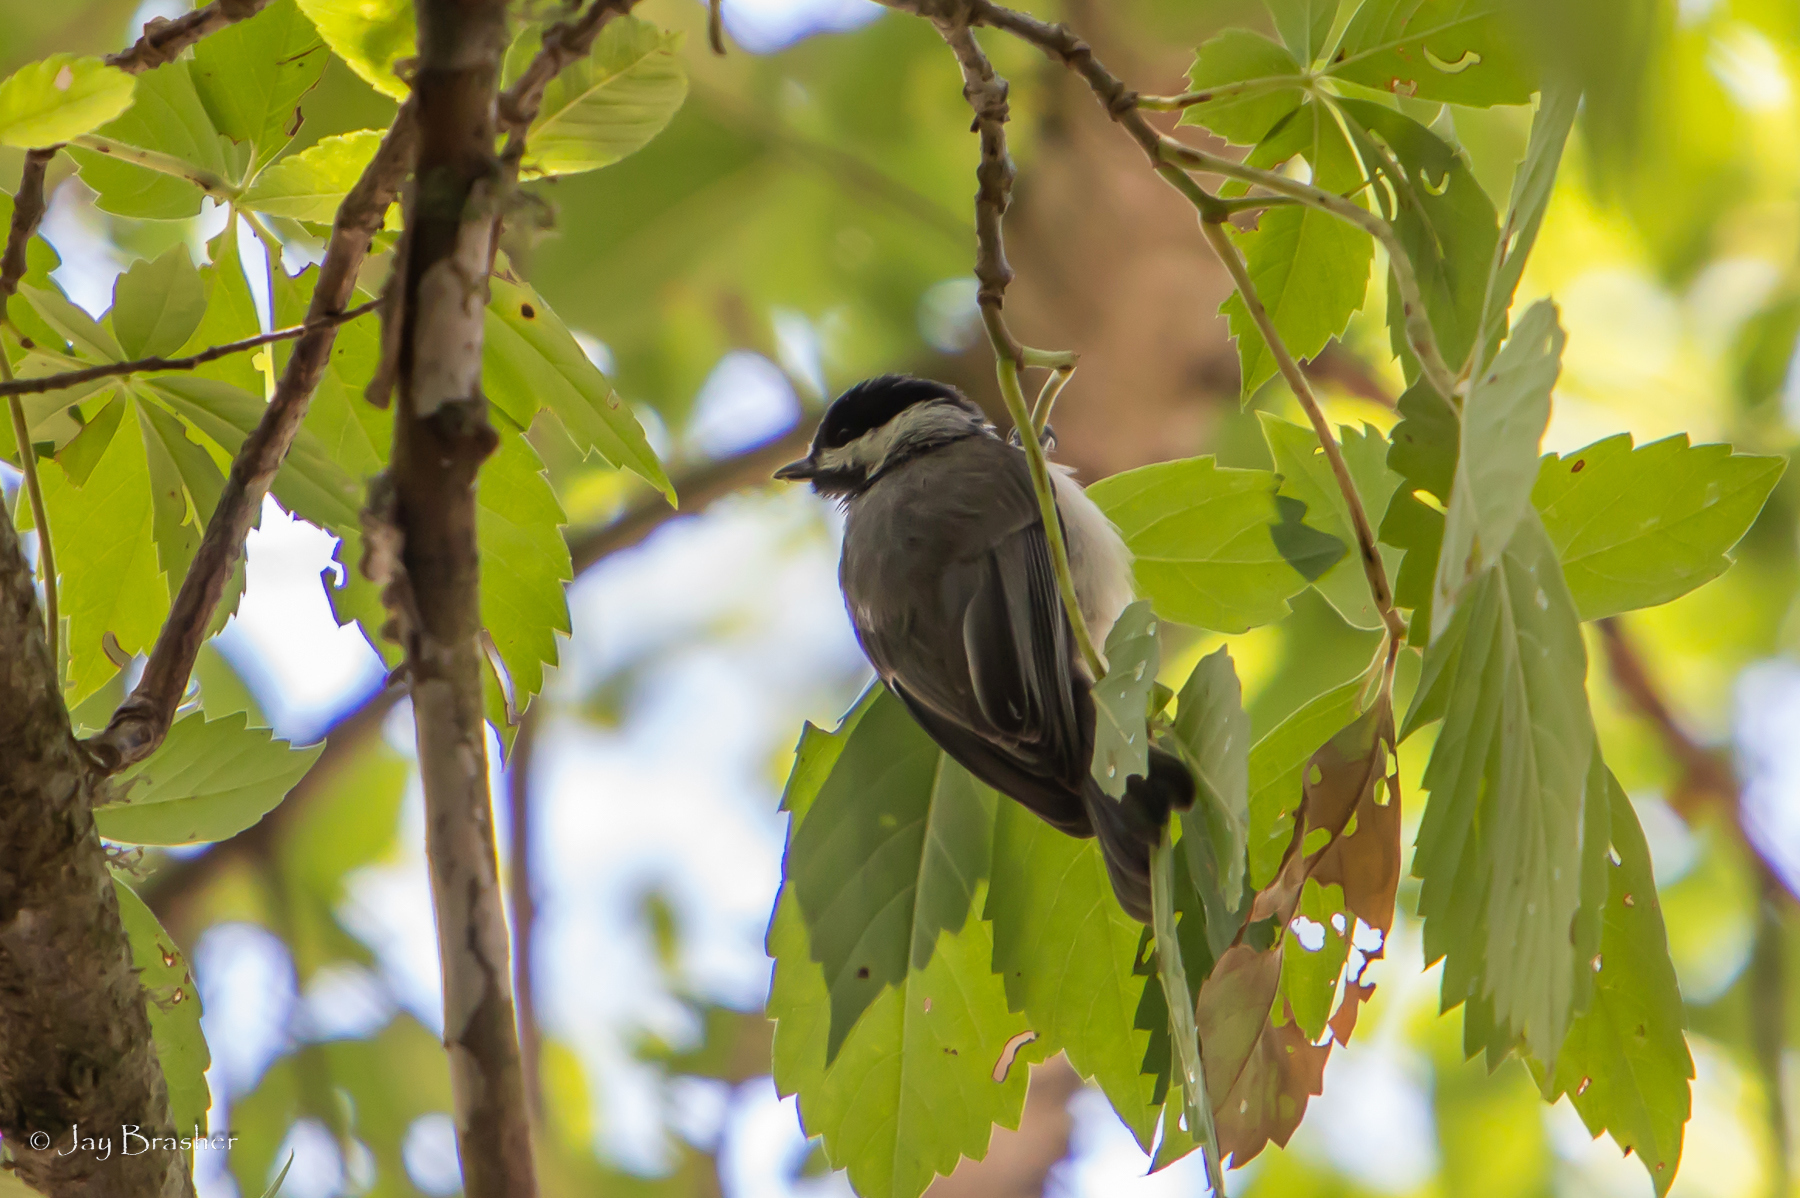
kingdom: Animalia
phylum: Chordata
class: Aves
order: Passeriformes
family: Paridae
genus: Poecile
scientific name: Poecile carolinensis
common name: Carolina chickadee
